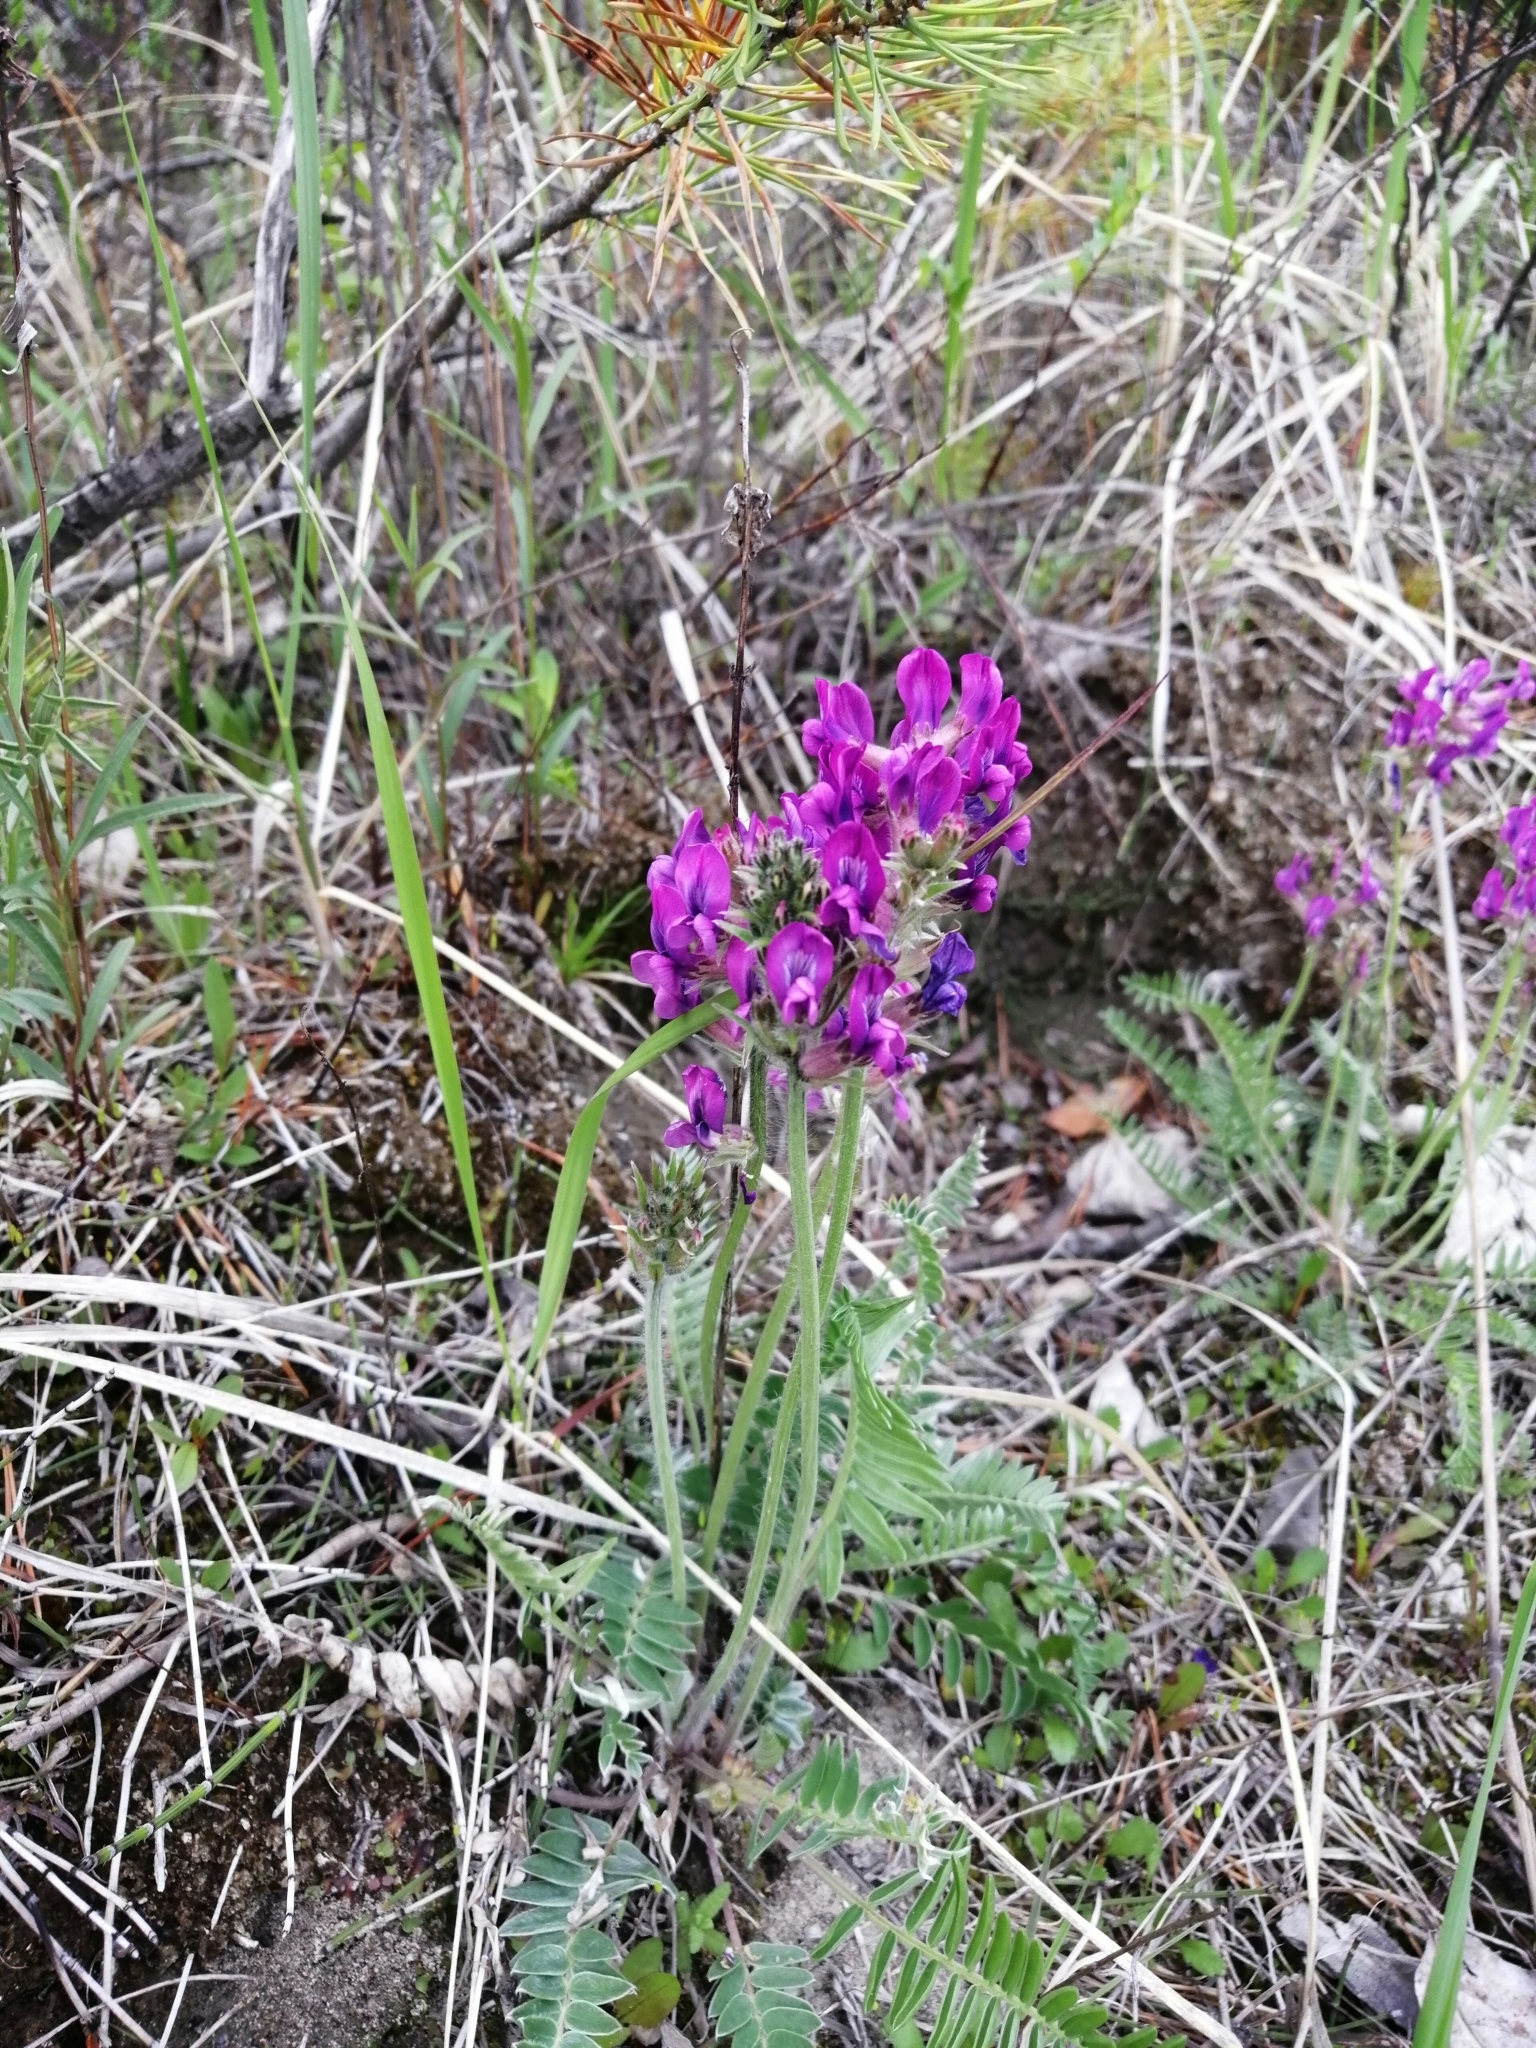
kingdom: Plantae
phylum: Tracheophyta
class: Magnoliopsida
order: Fabales
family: Fabaceae
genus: Oxytropis
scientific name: Oxytropis strobilacea
